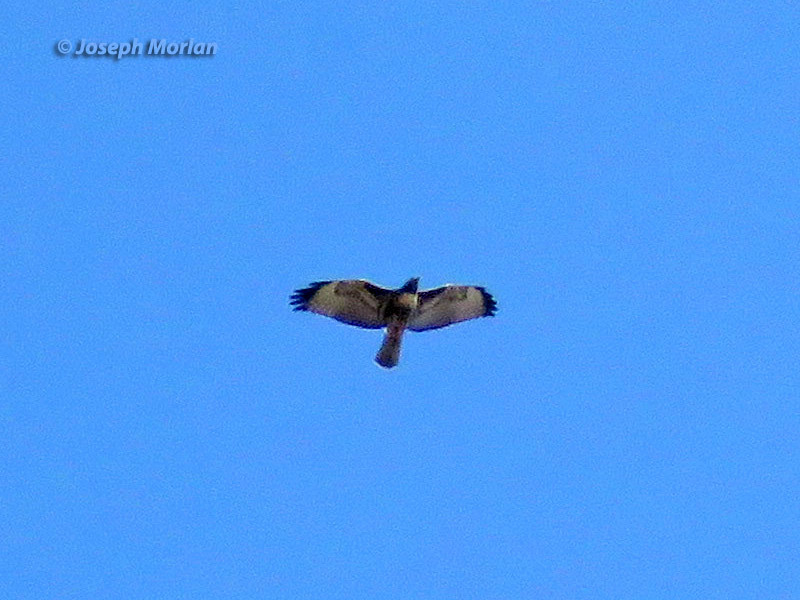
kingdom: Animalia
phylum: Chordata
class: Aves
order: Accipitriformes
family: Accipitridae
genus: Buteo
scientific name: Buteo jamaicensis
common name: Red-tailed hawk
